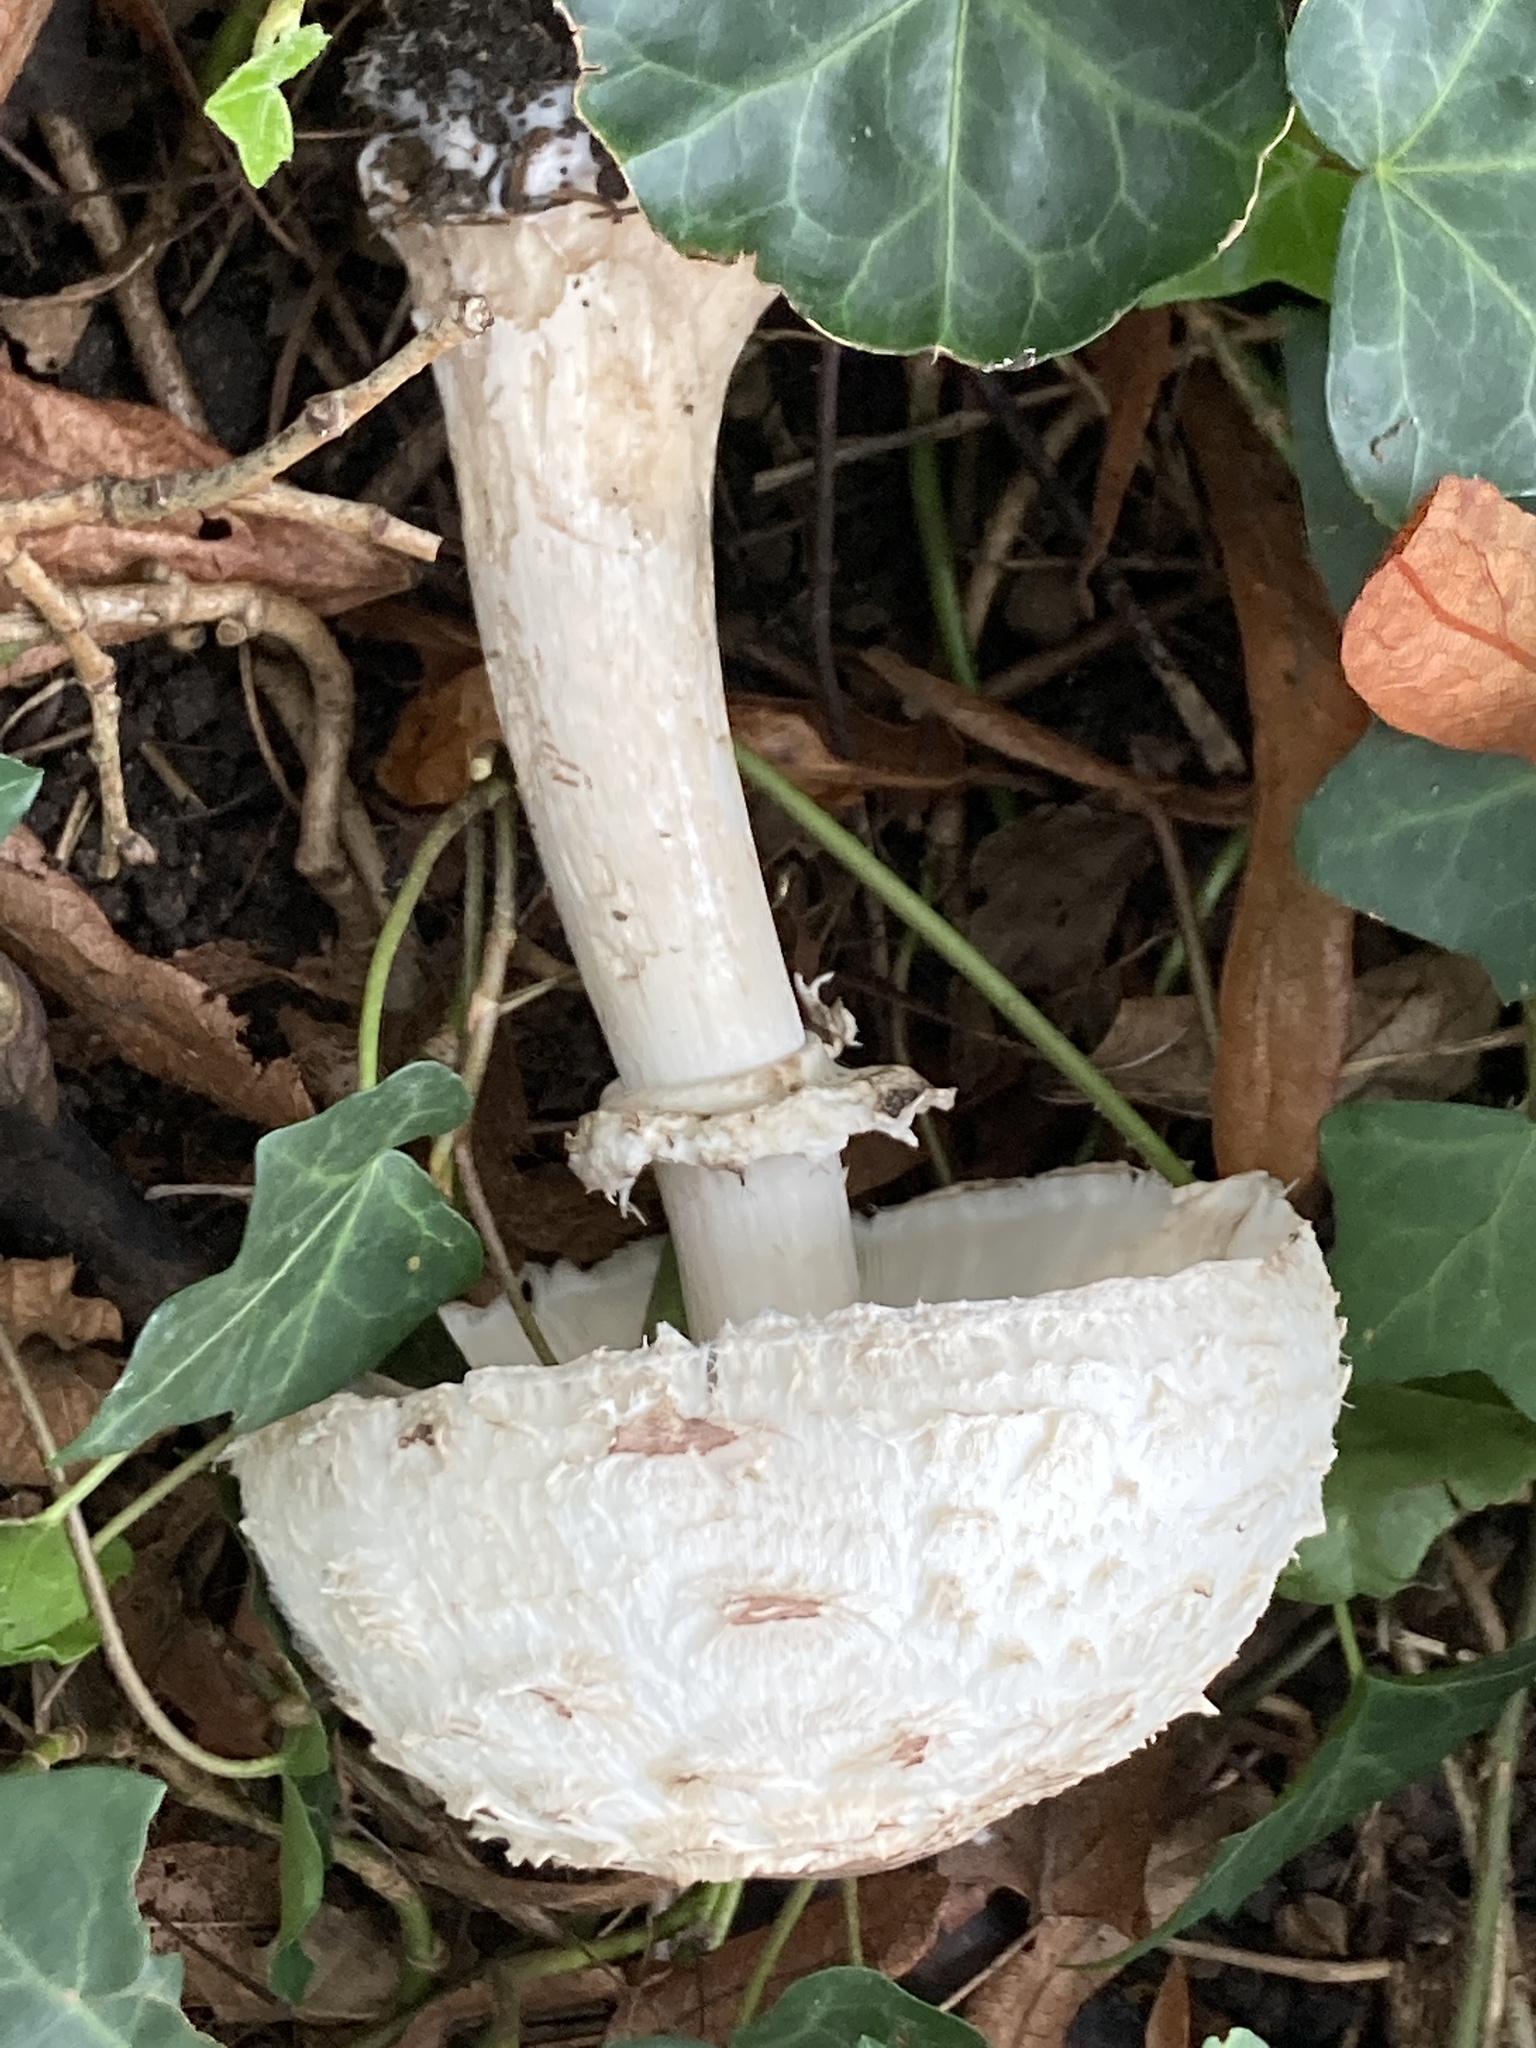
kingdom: Fungi
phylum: Basidiomycota
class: Agaricomycetes
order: Agaricales
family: Agaricaceae
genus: Chlorophyllum
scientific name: Chlorophyllum rhacodes
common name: Shaggy parasol
